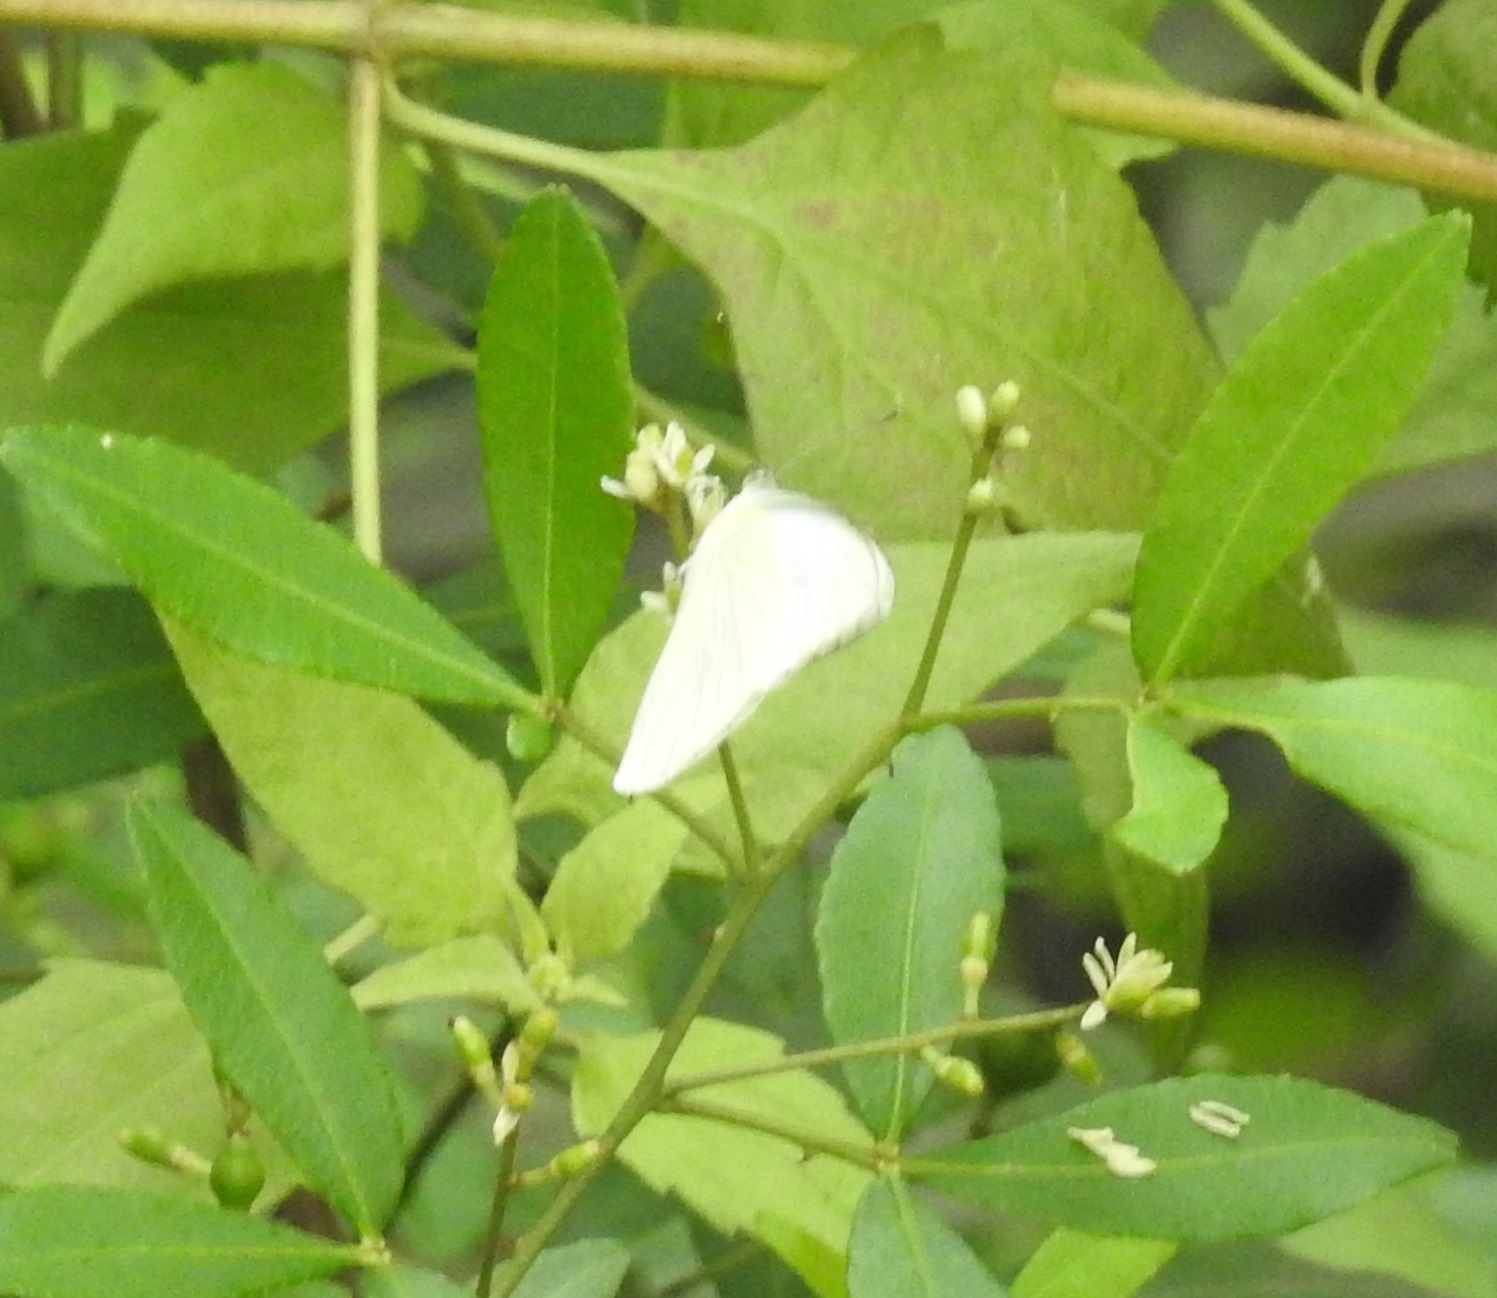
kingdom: Animalia
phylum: Arthropoda
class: Insecta
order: Lepidoptera
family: Pieridae
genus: Appias
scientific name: Appias albina
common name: Common albatross
